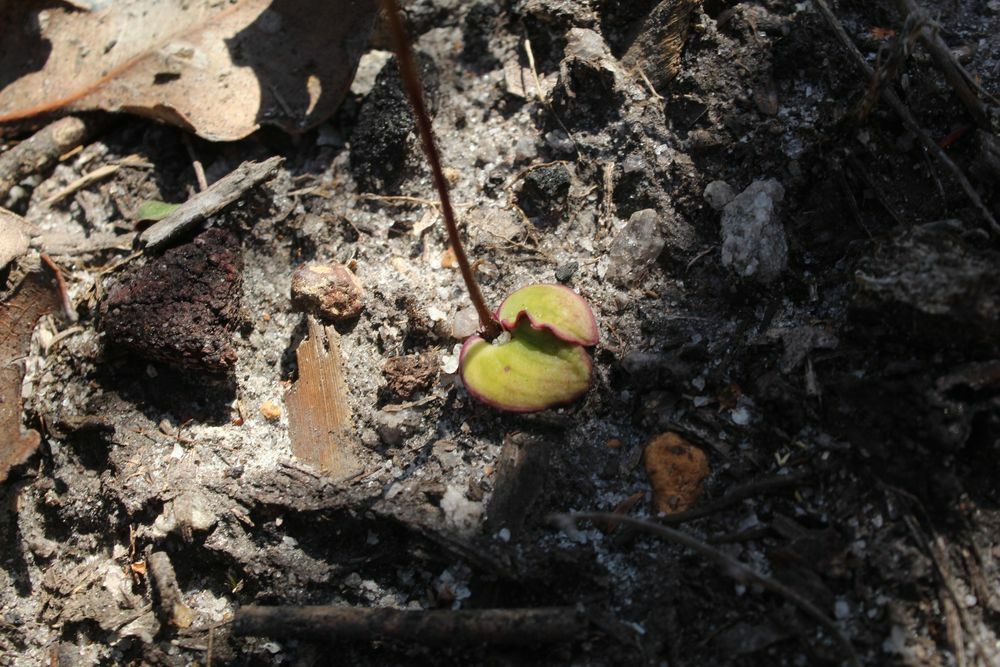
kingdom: Plantae
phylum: Tracheophyta
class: Liliopsida
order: Asparagales
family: Orchidaceae
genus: Drakaea
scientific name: Drakaea livida
